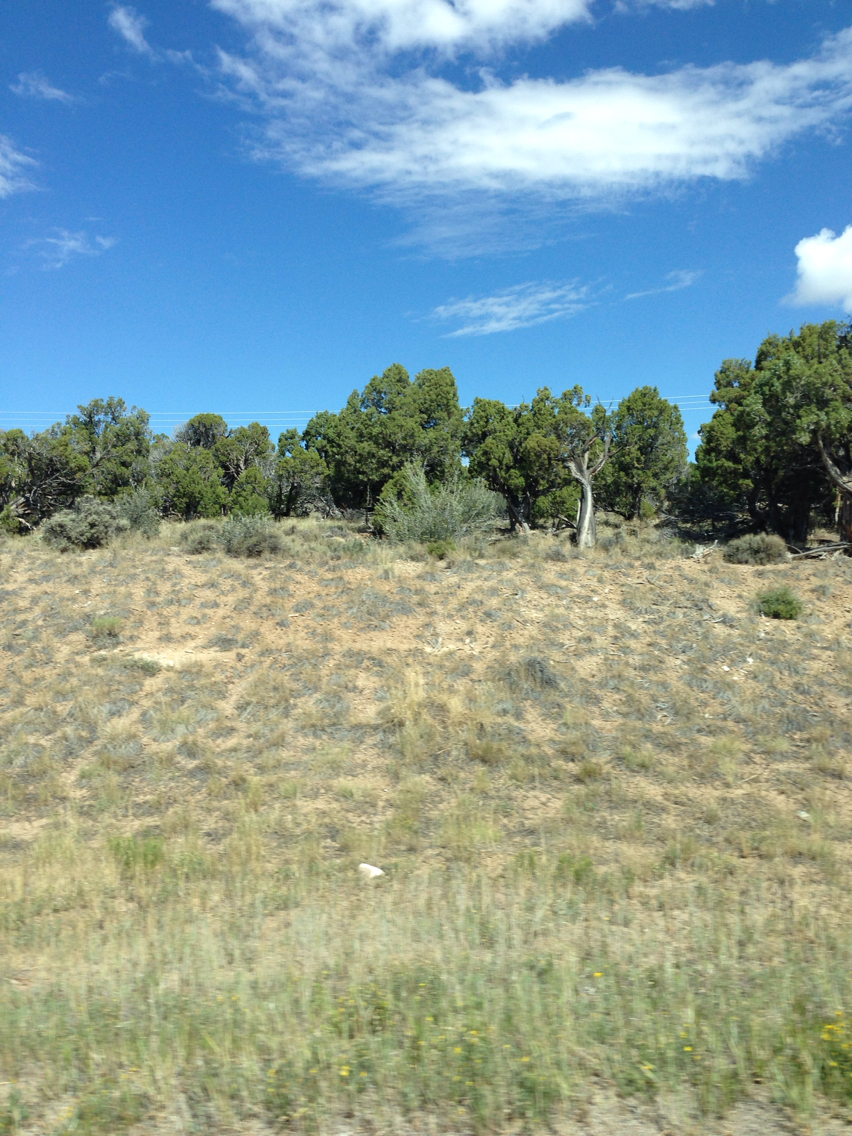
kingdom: Plantae
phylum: Tracheophyta
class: Pinopsida
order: Pinales
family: Cupressaceae
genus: Juniperus
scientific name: Juniperus osteosperma
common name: Utah juniper
